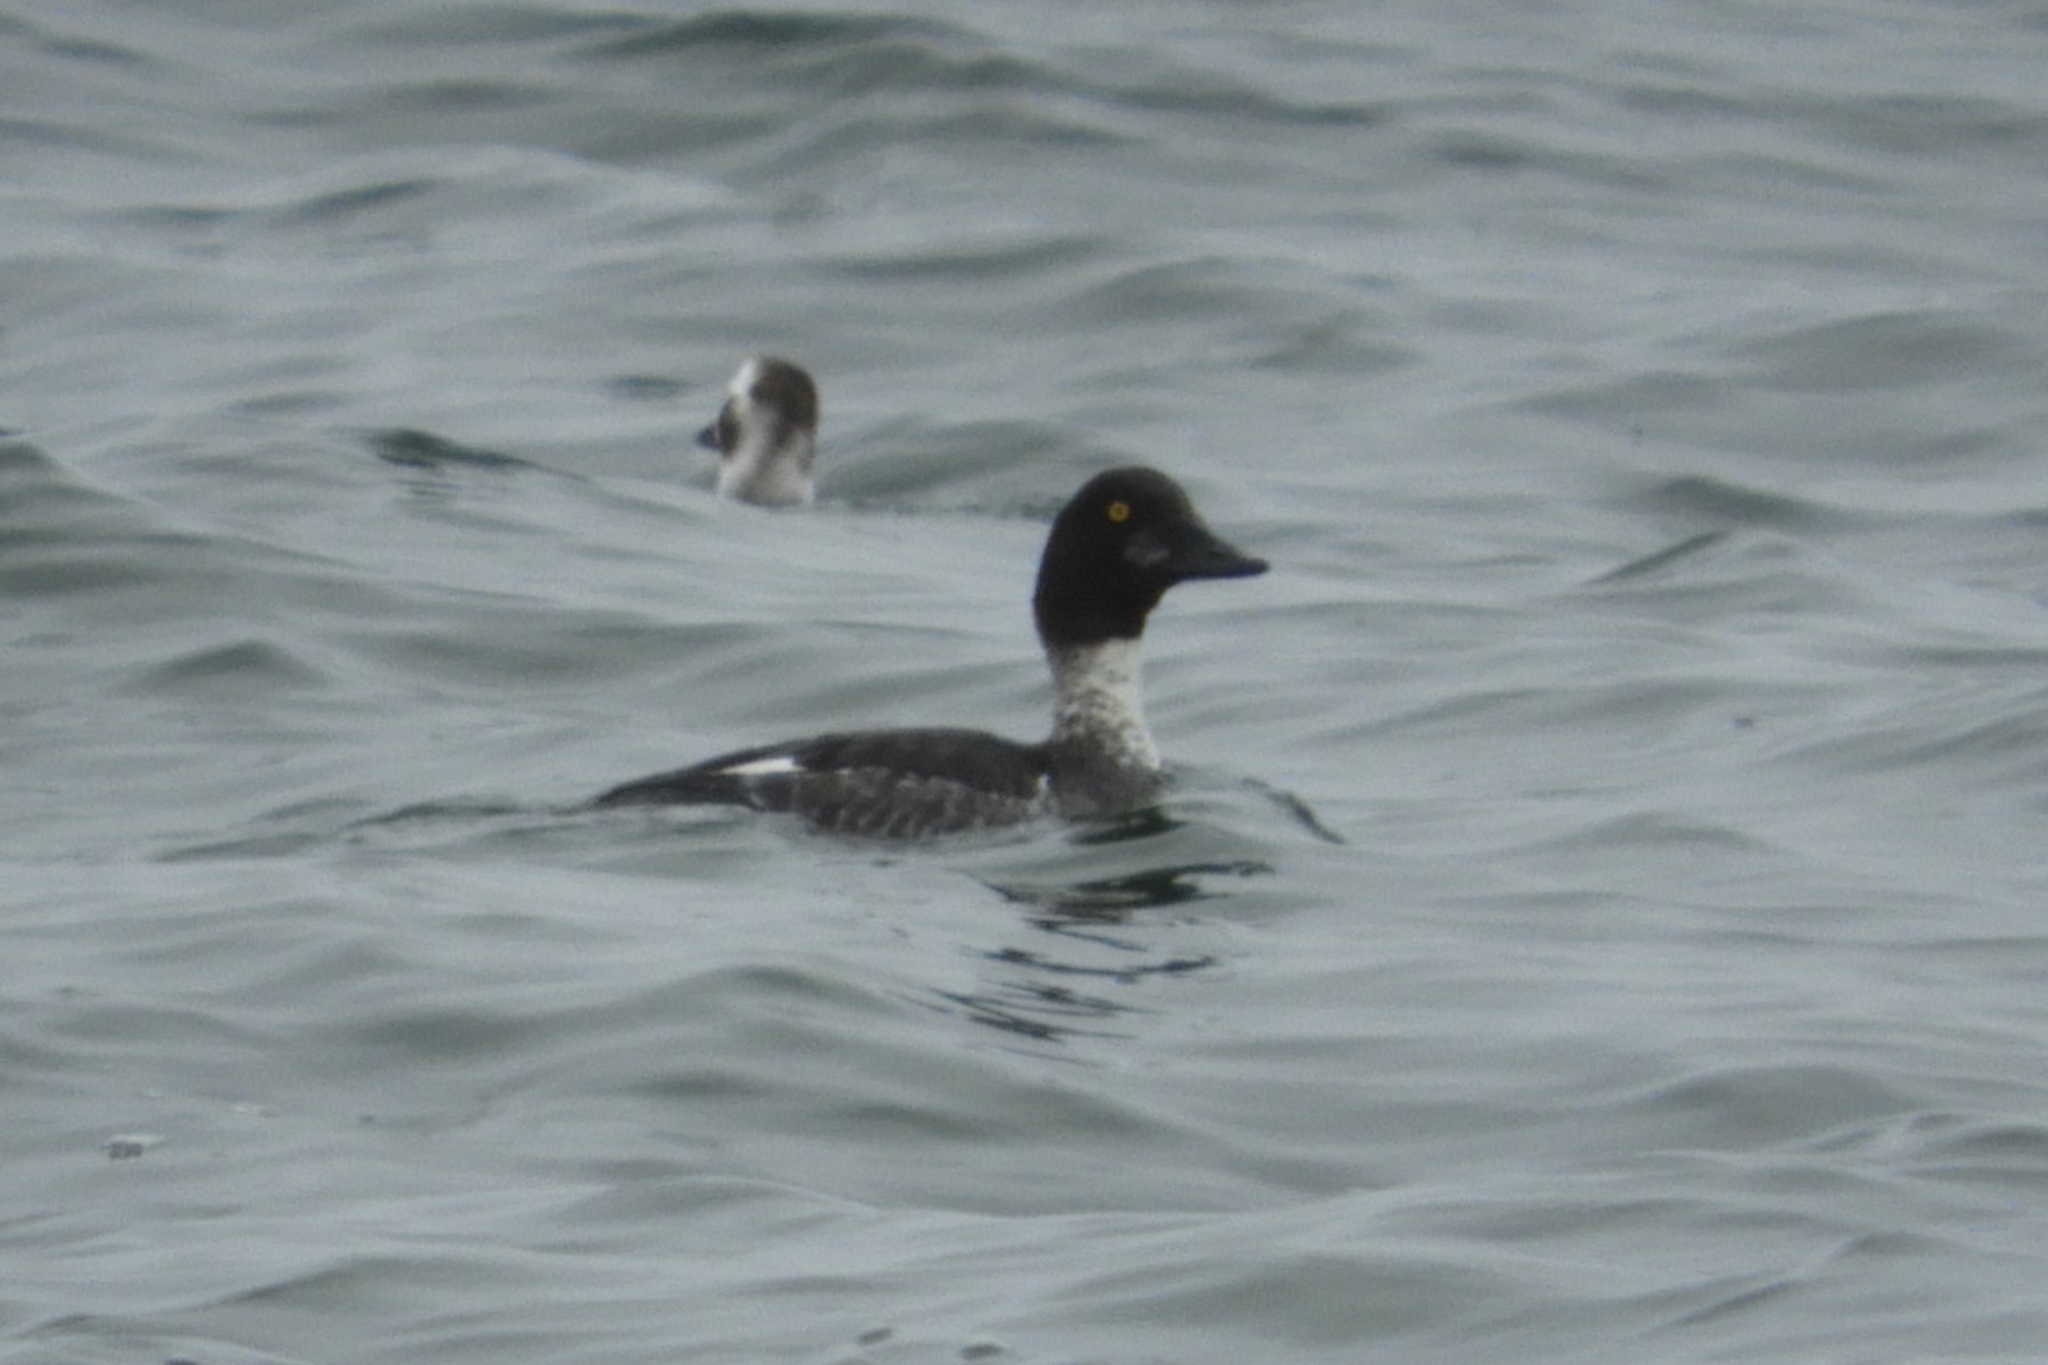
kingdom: Animalia
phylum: Chordata
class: Aves
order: Anseriformes
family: Anatidae
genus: Bucephala
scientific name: Bucephala clangula
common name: Common goldeneye
